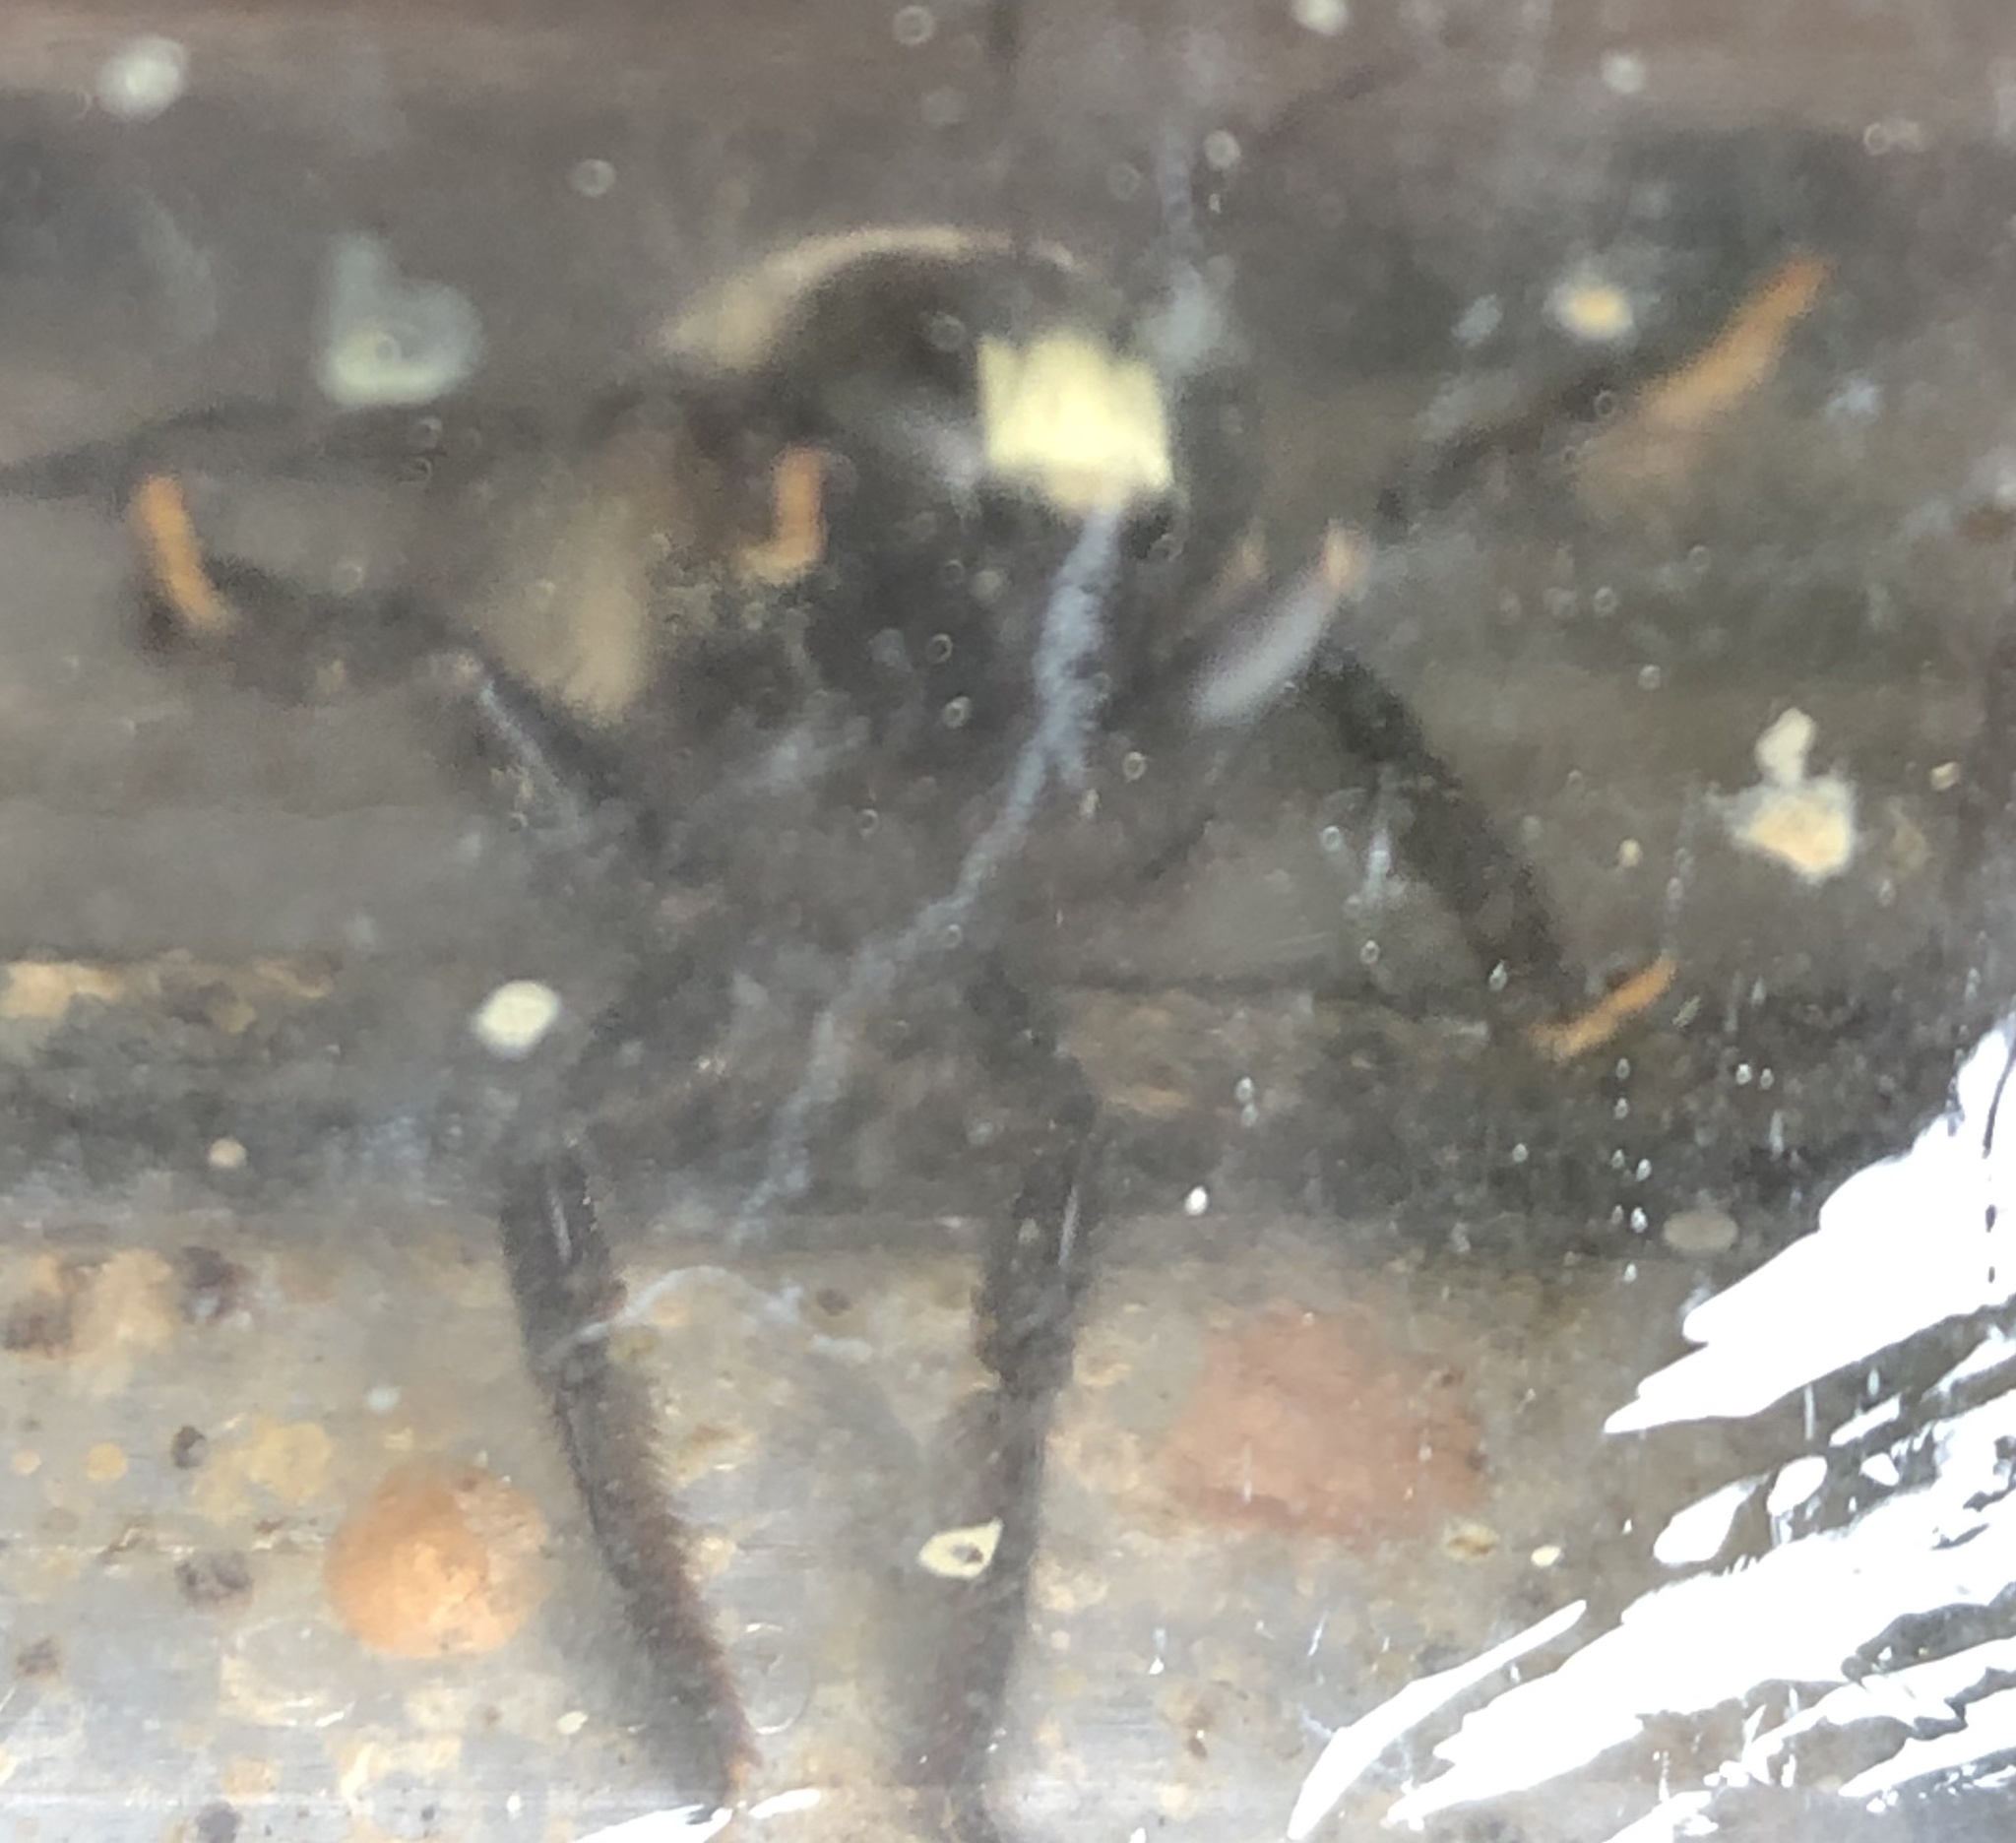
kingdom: Animalia
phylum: Arthropoda
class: Insecta
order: Hymenoptera
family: Apidae
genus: Xylocopa
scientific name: Xylocopa virginica
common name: Carpenter bee
